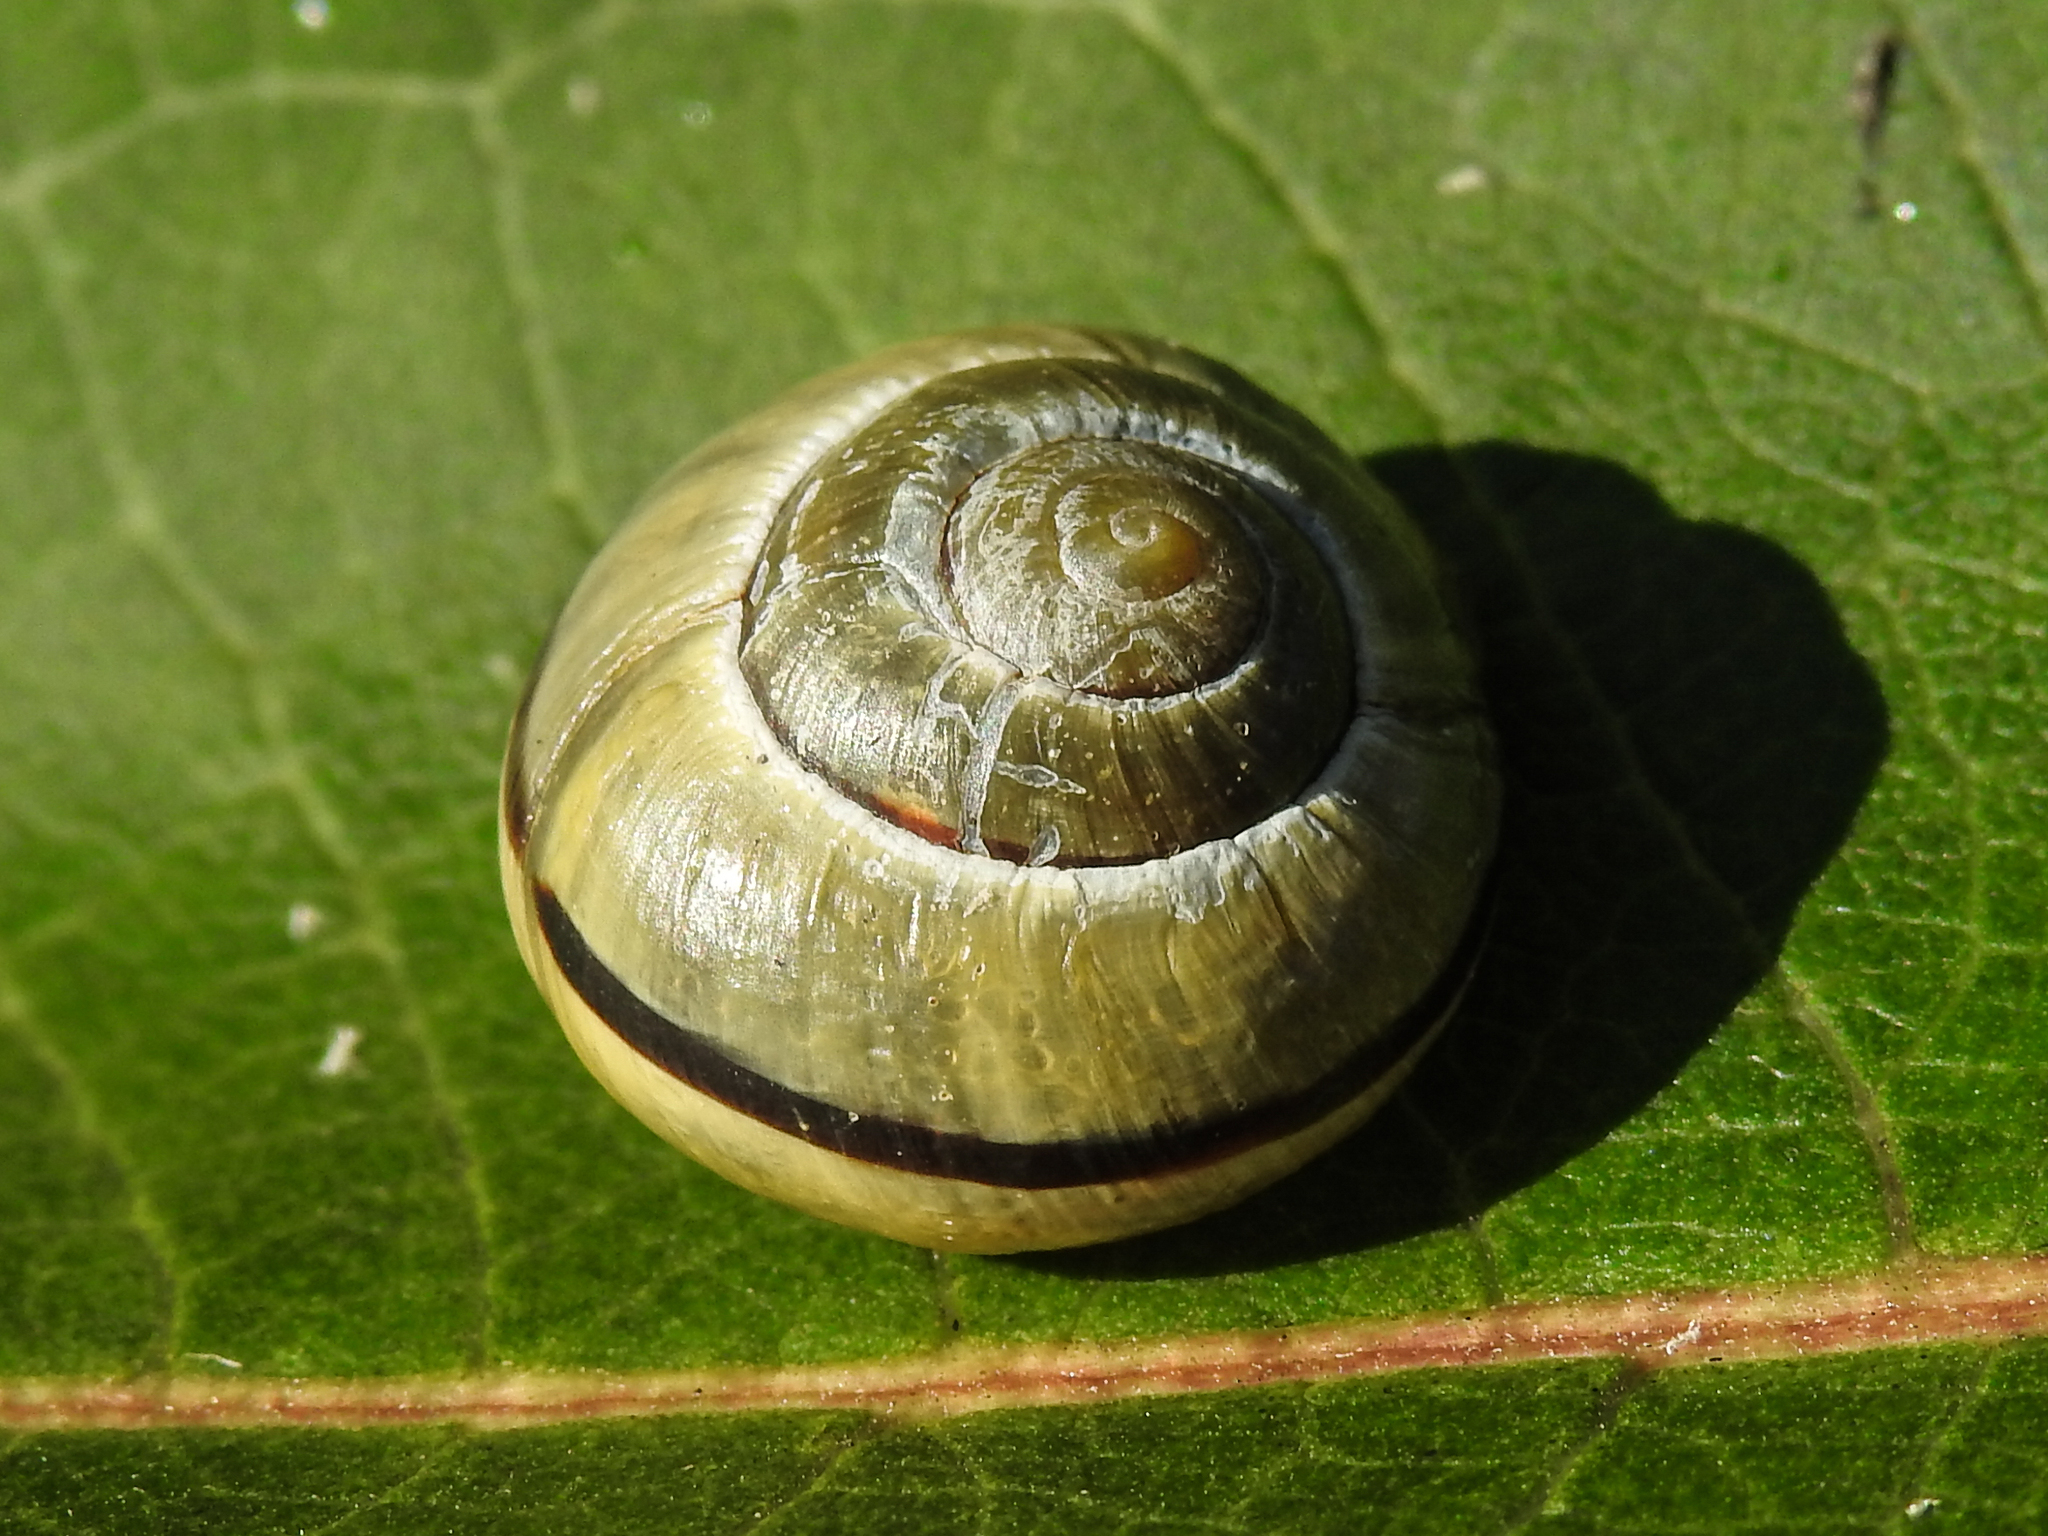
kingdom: Animalia
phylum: Mollusca
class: Gastropoda
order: Stylommatophora
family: Helicidae
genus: Cepaea
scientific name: Cepaea nemoralis
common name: Grovesnail
